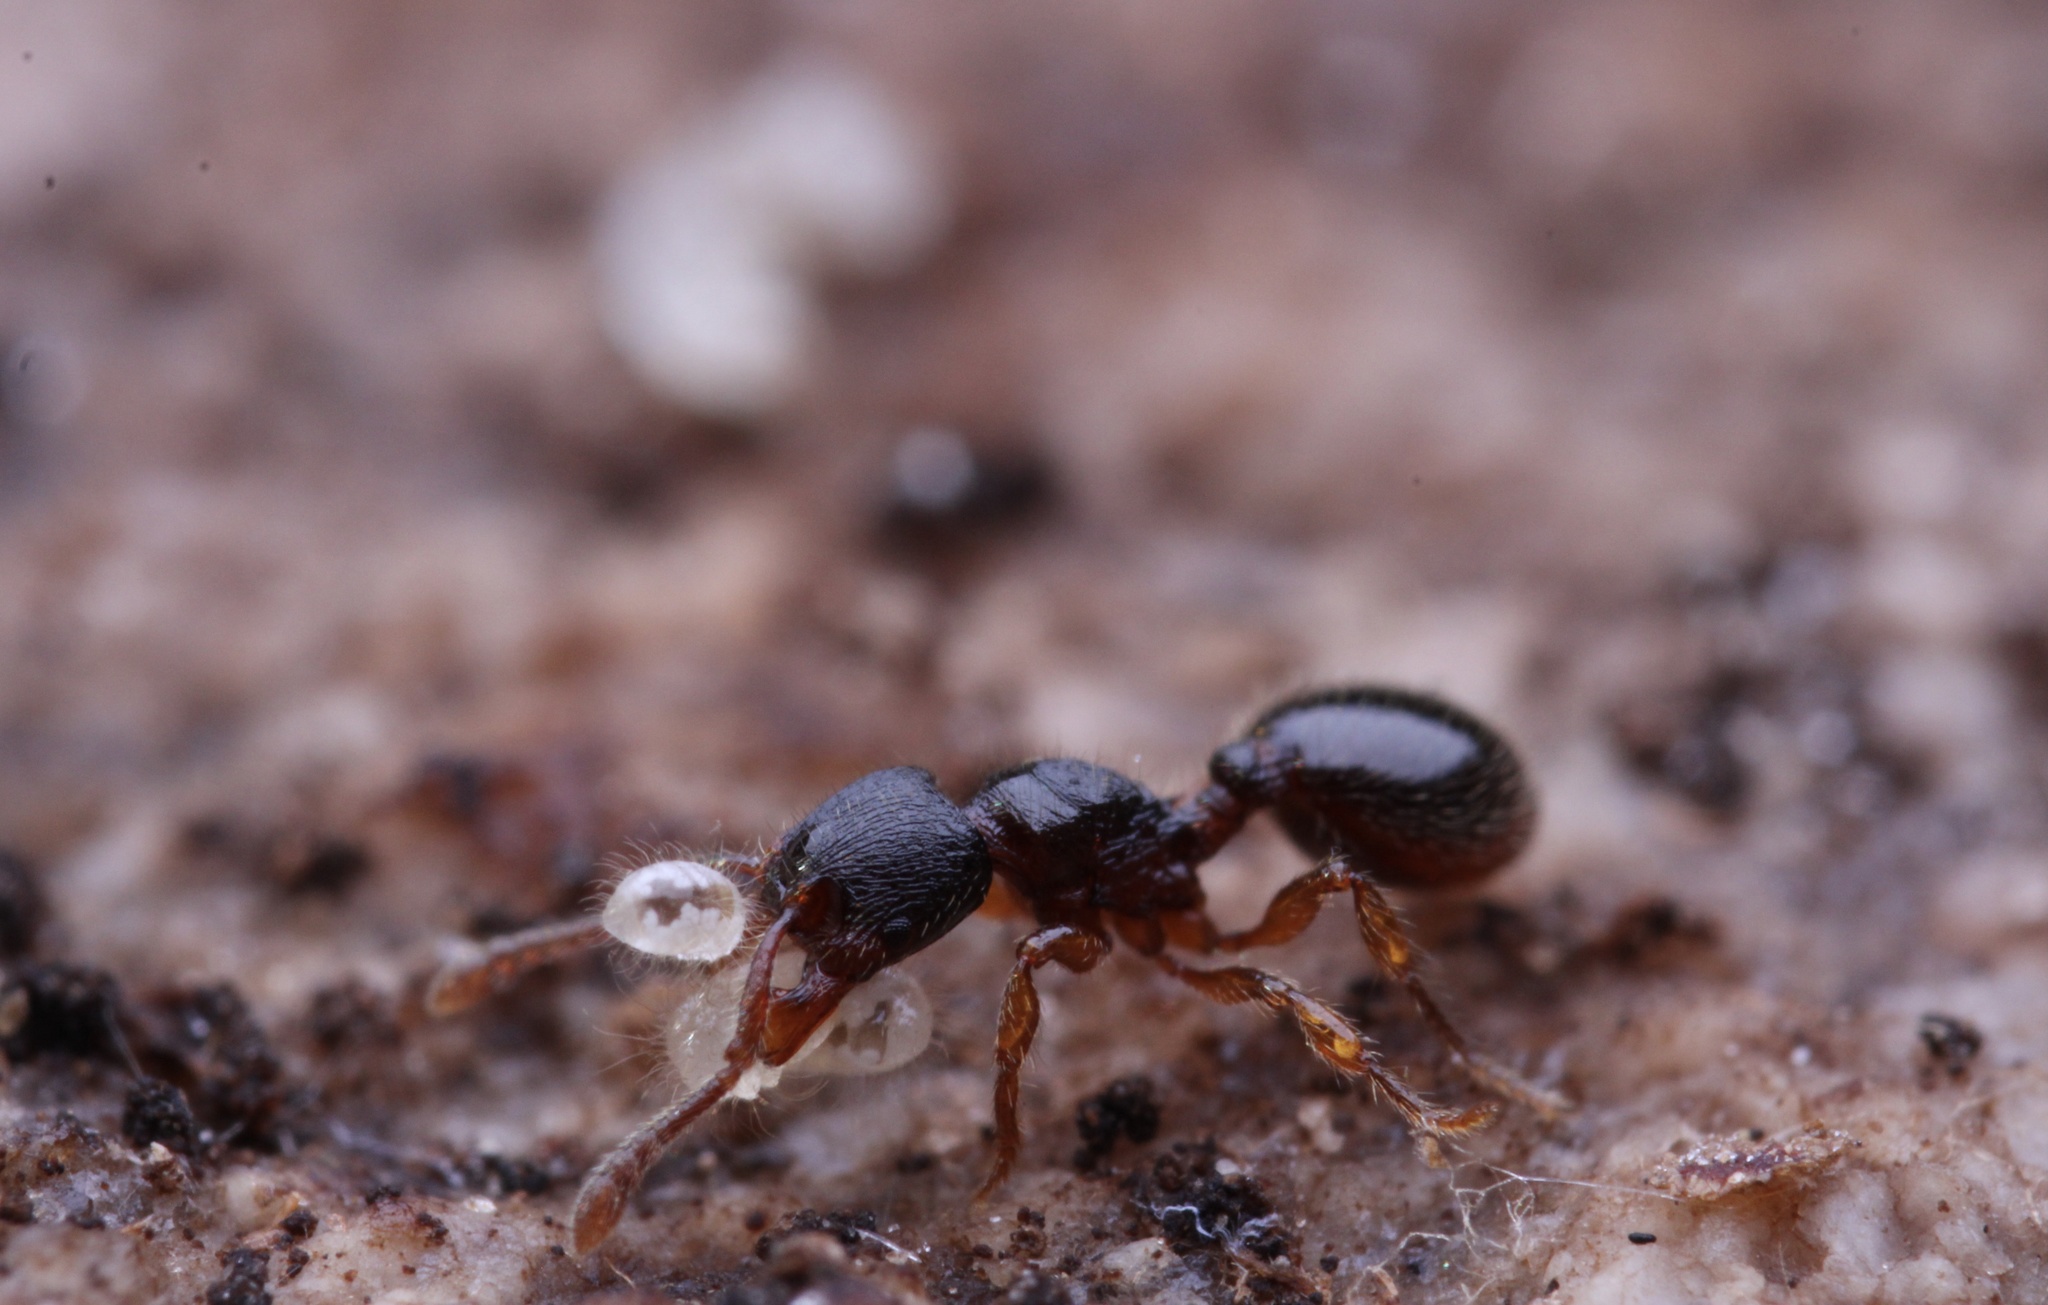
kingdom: Animalia
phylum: Arthropoda
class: Insecta
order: Hymenoptera
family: Formicidae
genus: Myrmecina
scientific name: Myrmecina americana
